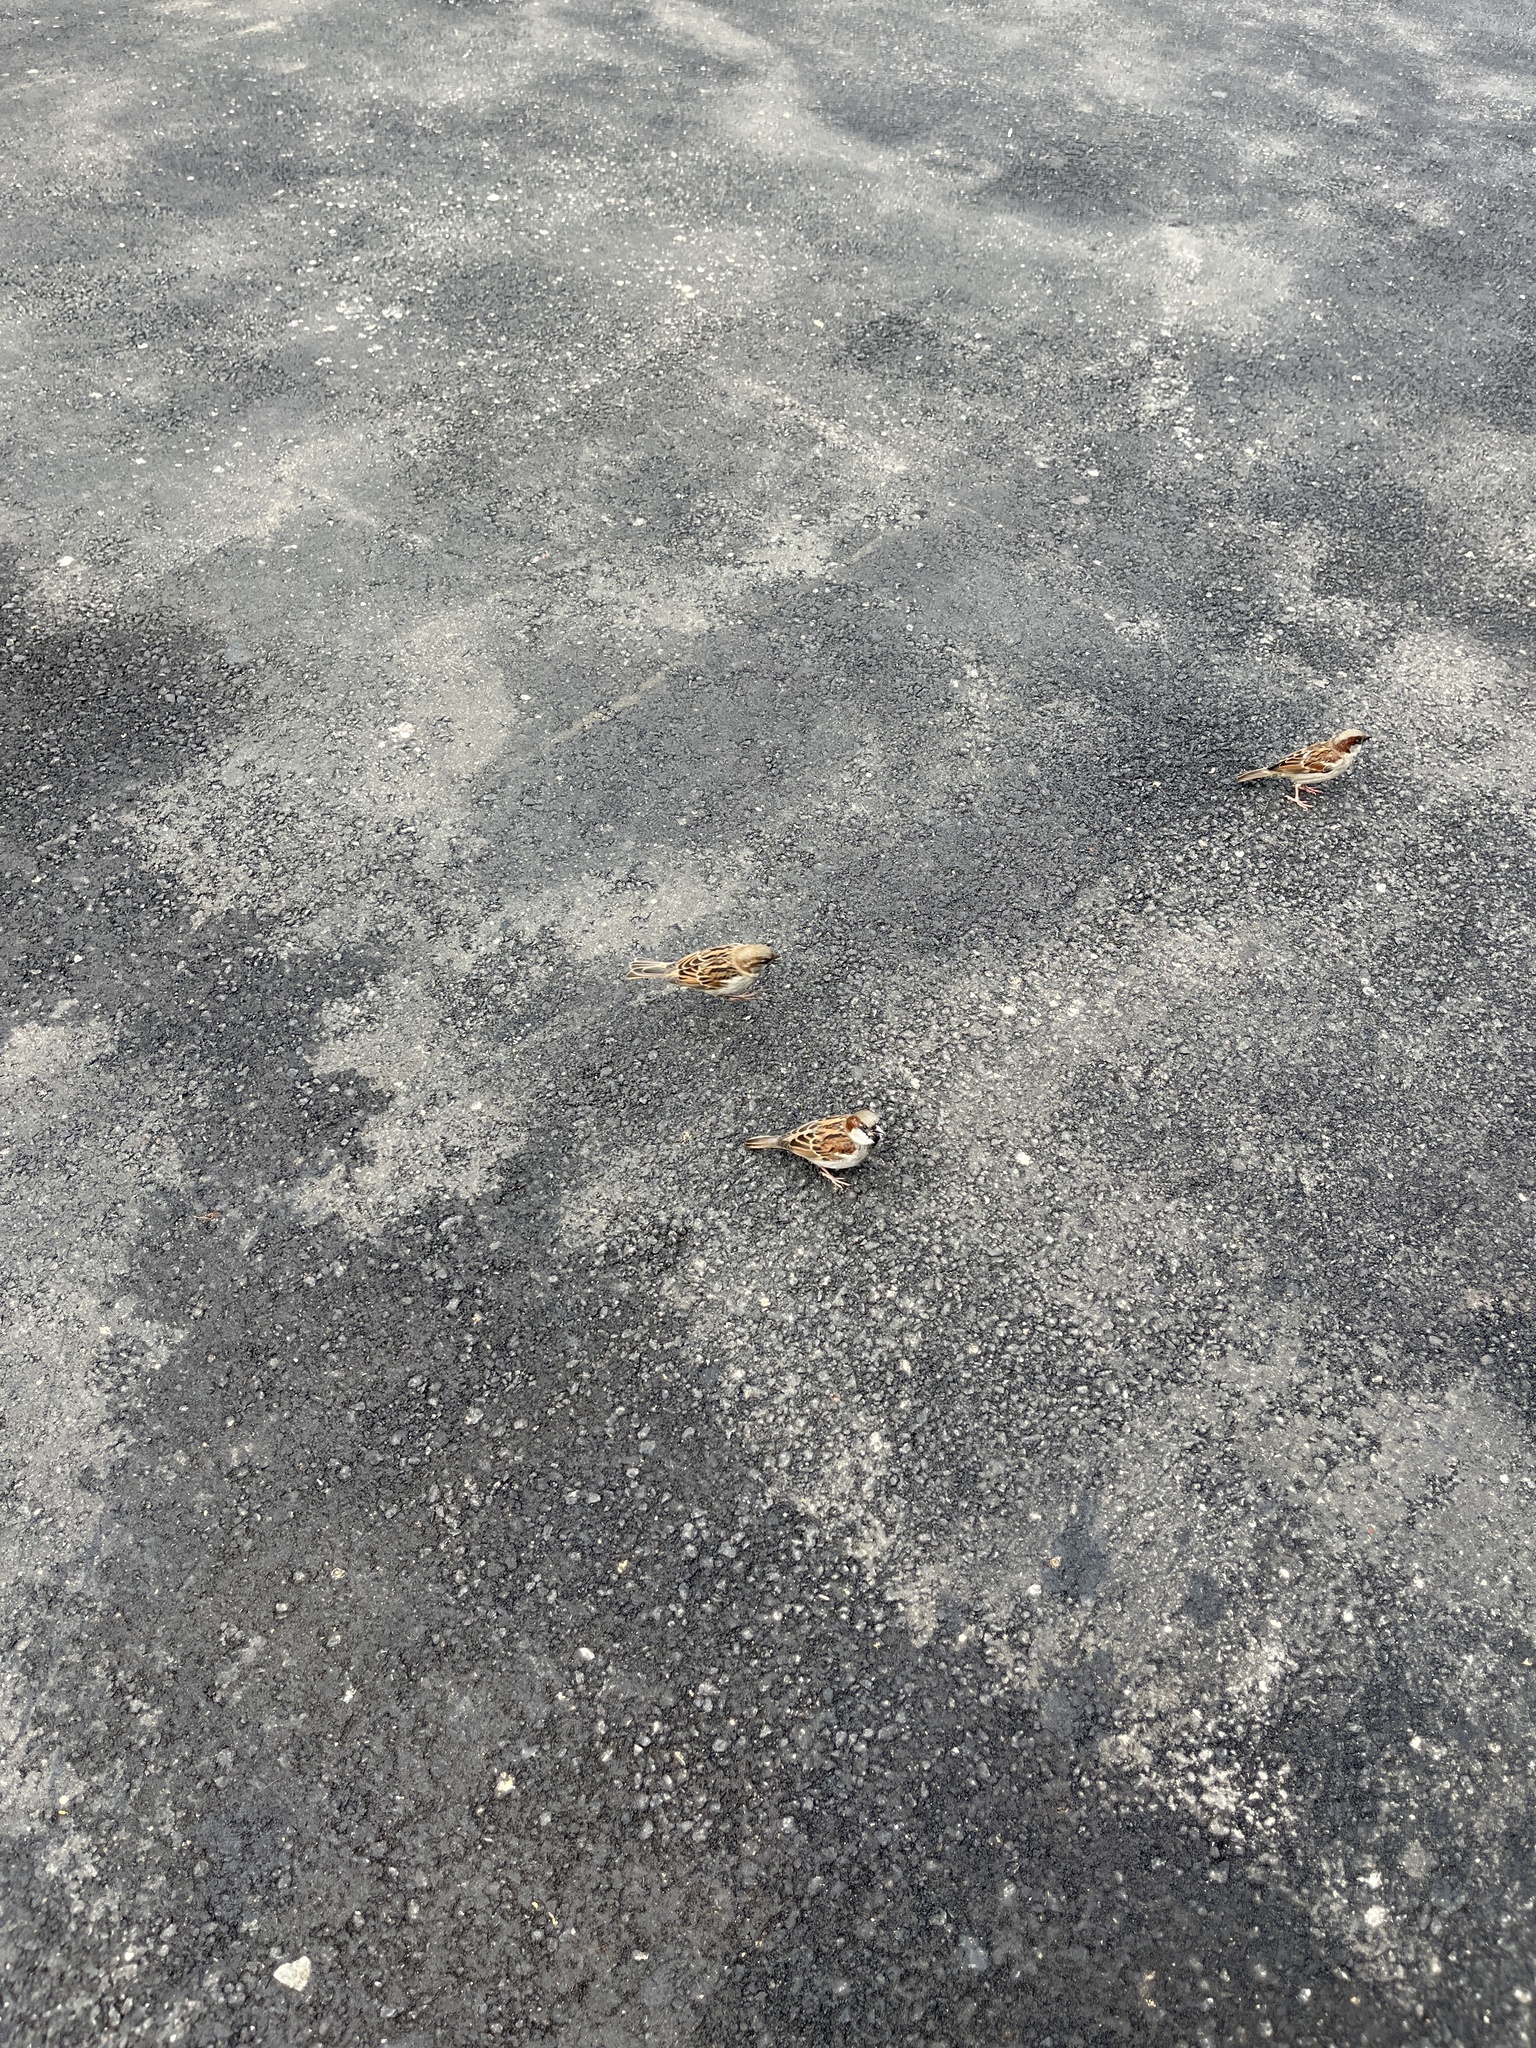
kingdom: Animalia
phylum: Chordata
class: Aves
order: Passeriformes
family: Passeridae
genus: Passer
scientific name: Passer domesticus
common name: House sparrow
